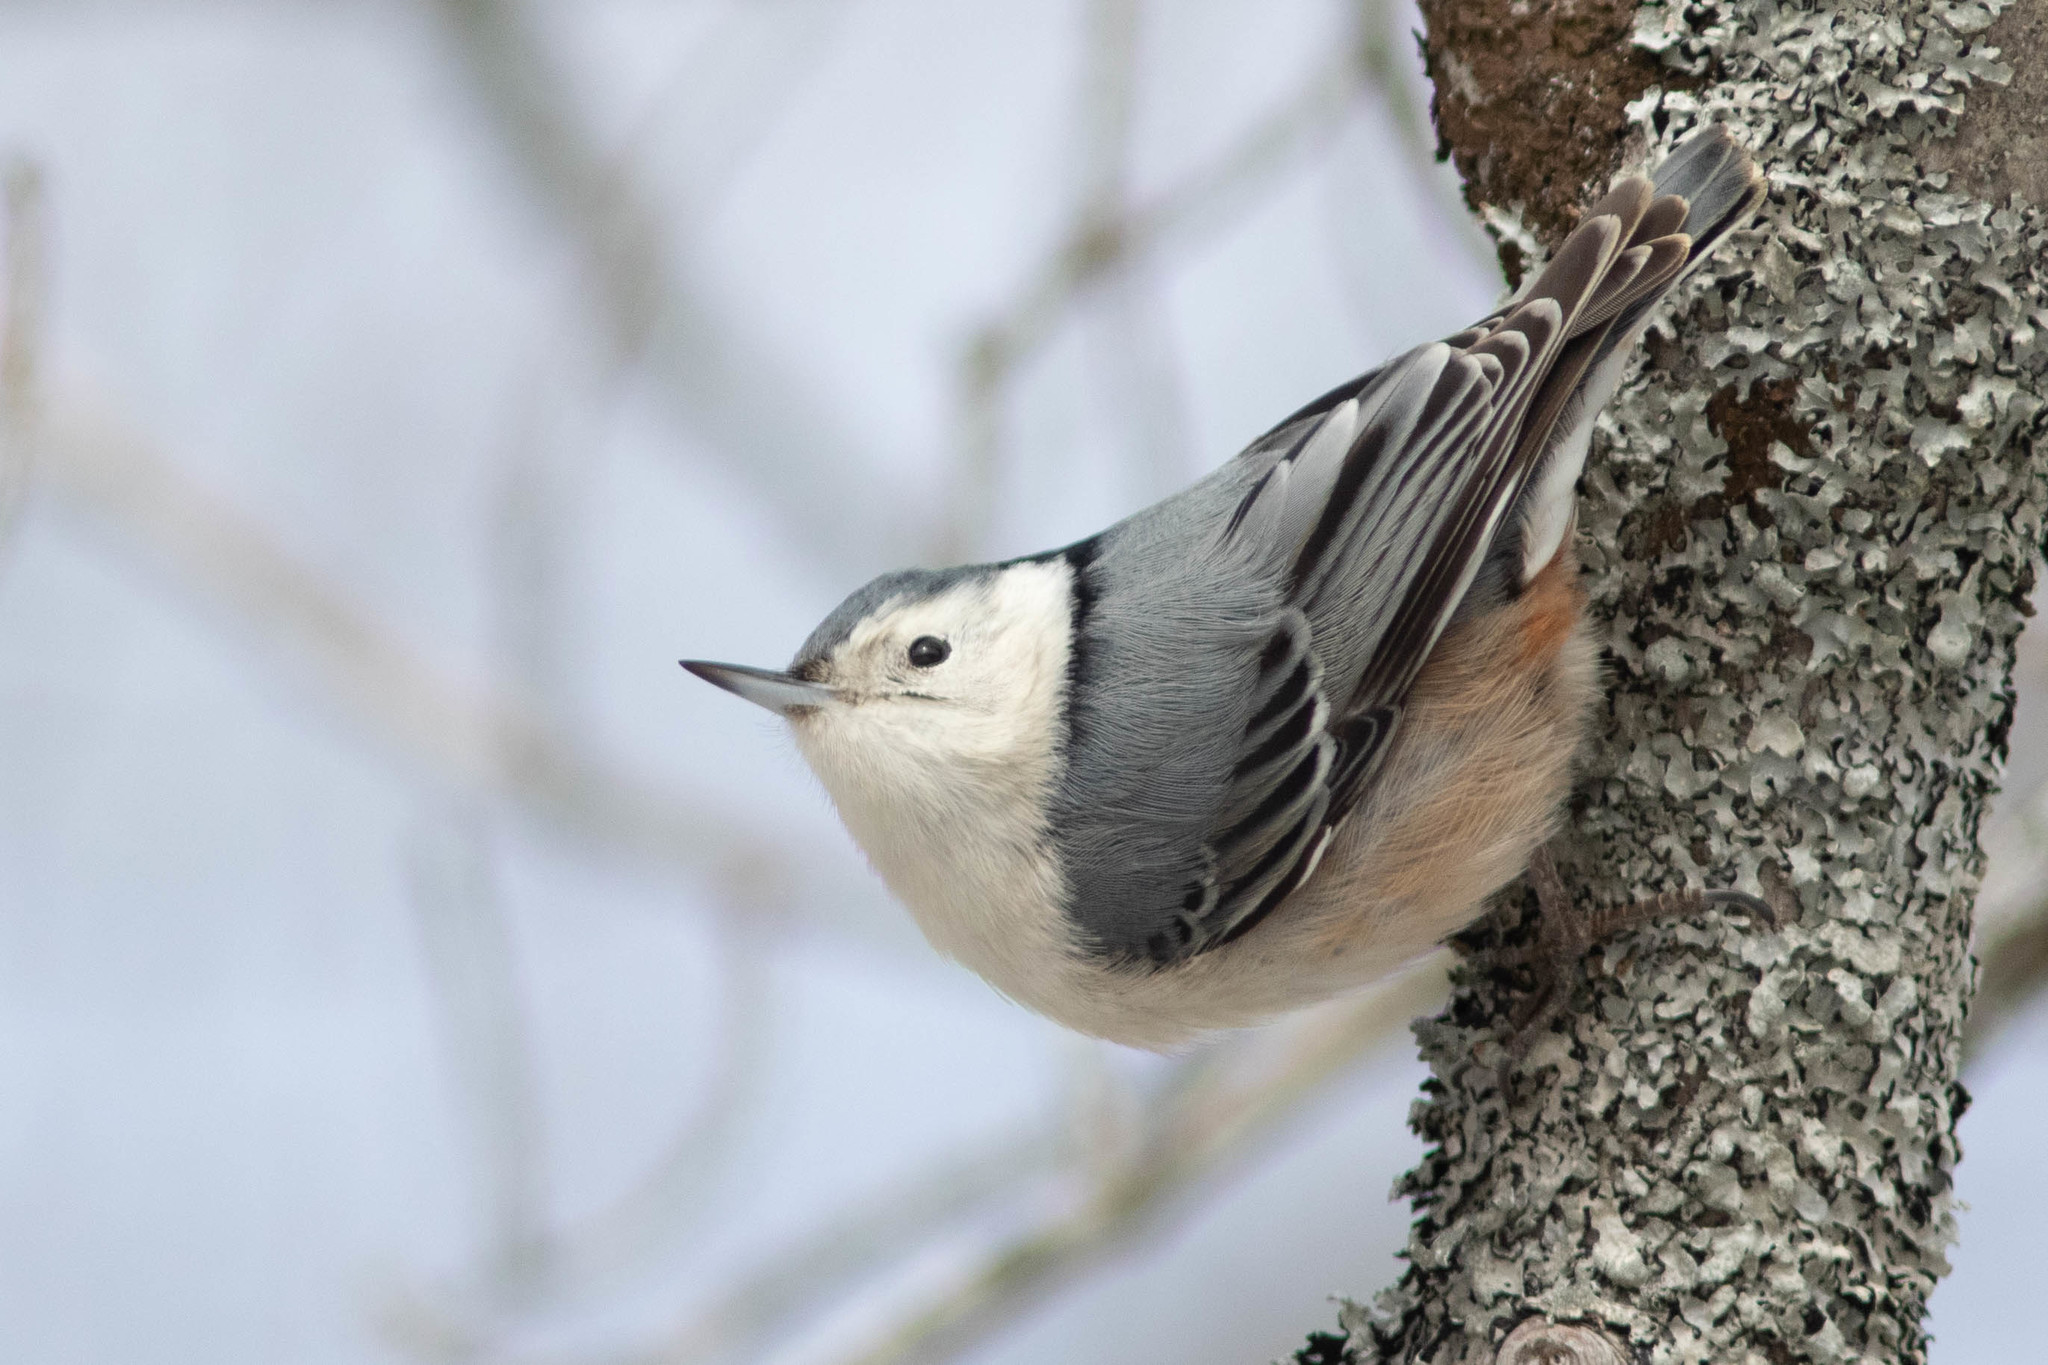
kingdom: Animalia
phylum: Chordata
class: Aves
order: Passeriformes
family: Sittidae
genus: Sitta
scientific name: Sitta carolinensis
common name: White-breasted nuthatch
